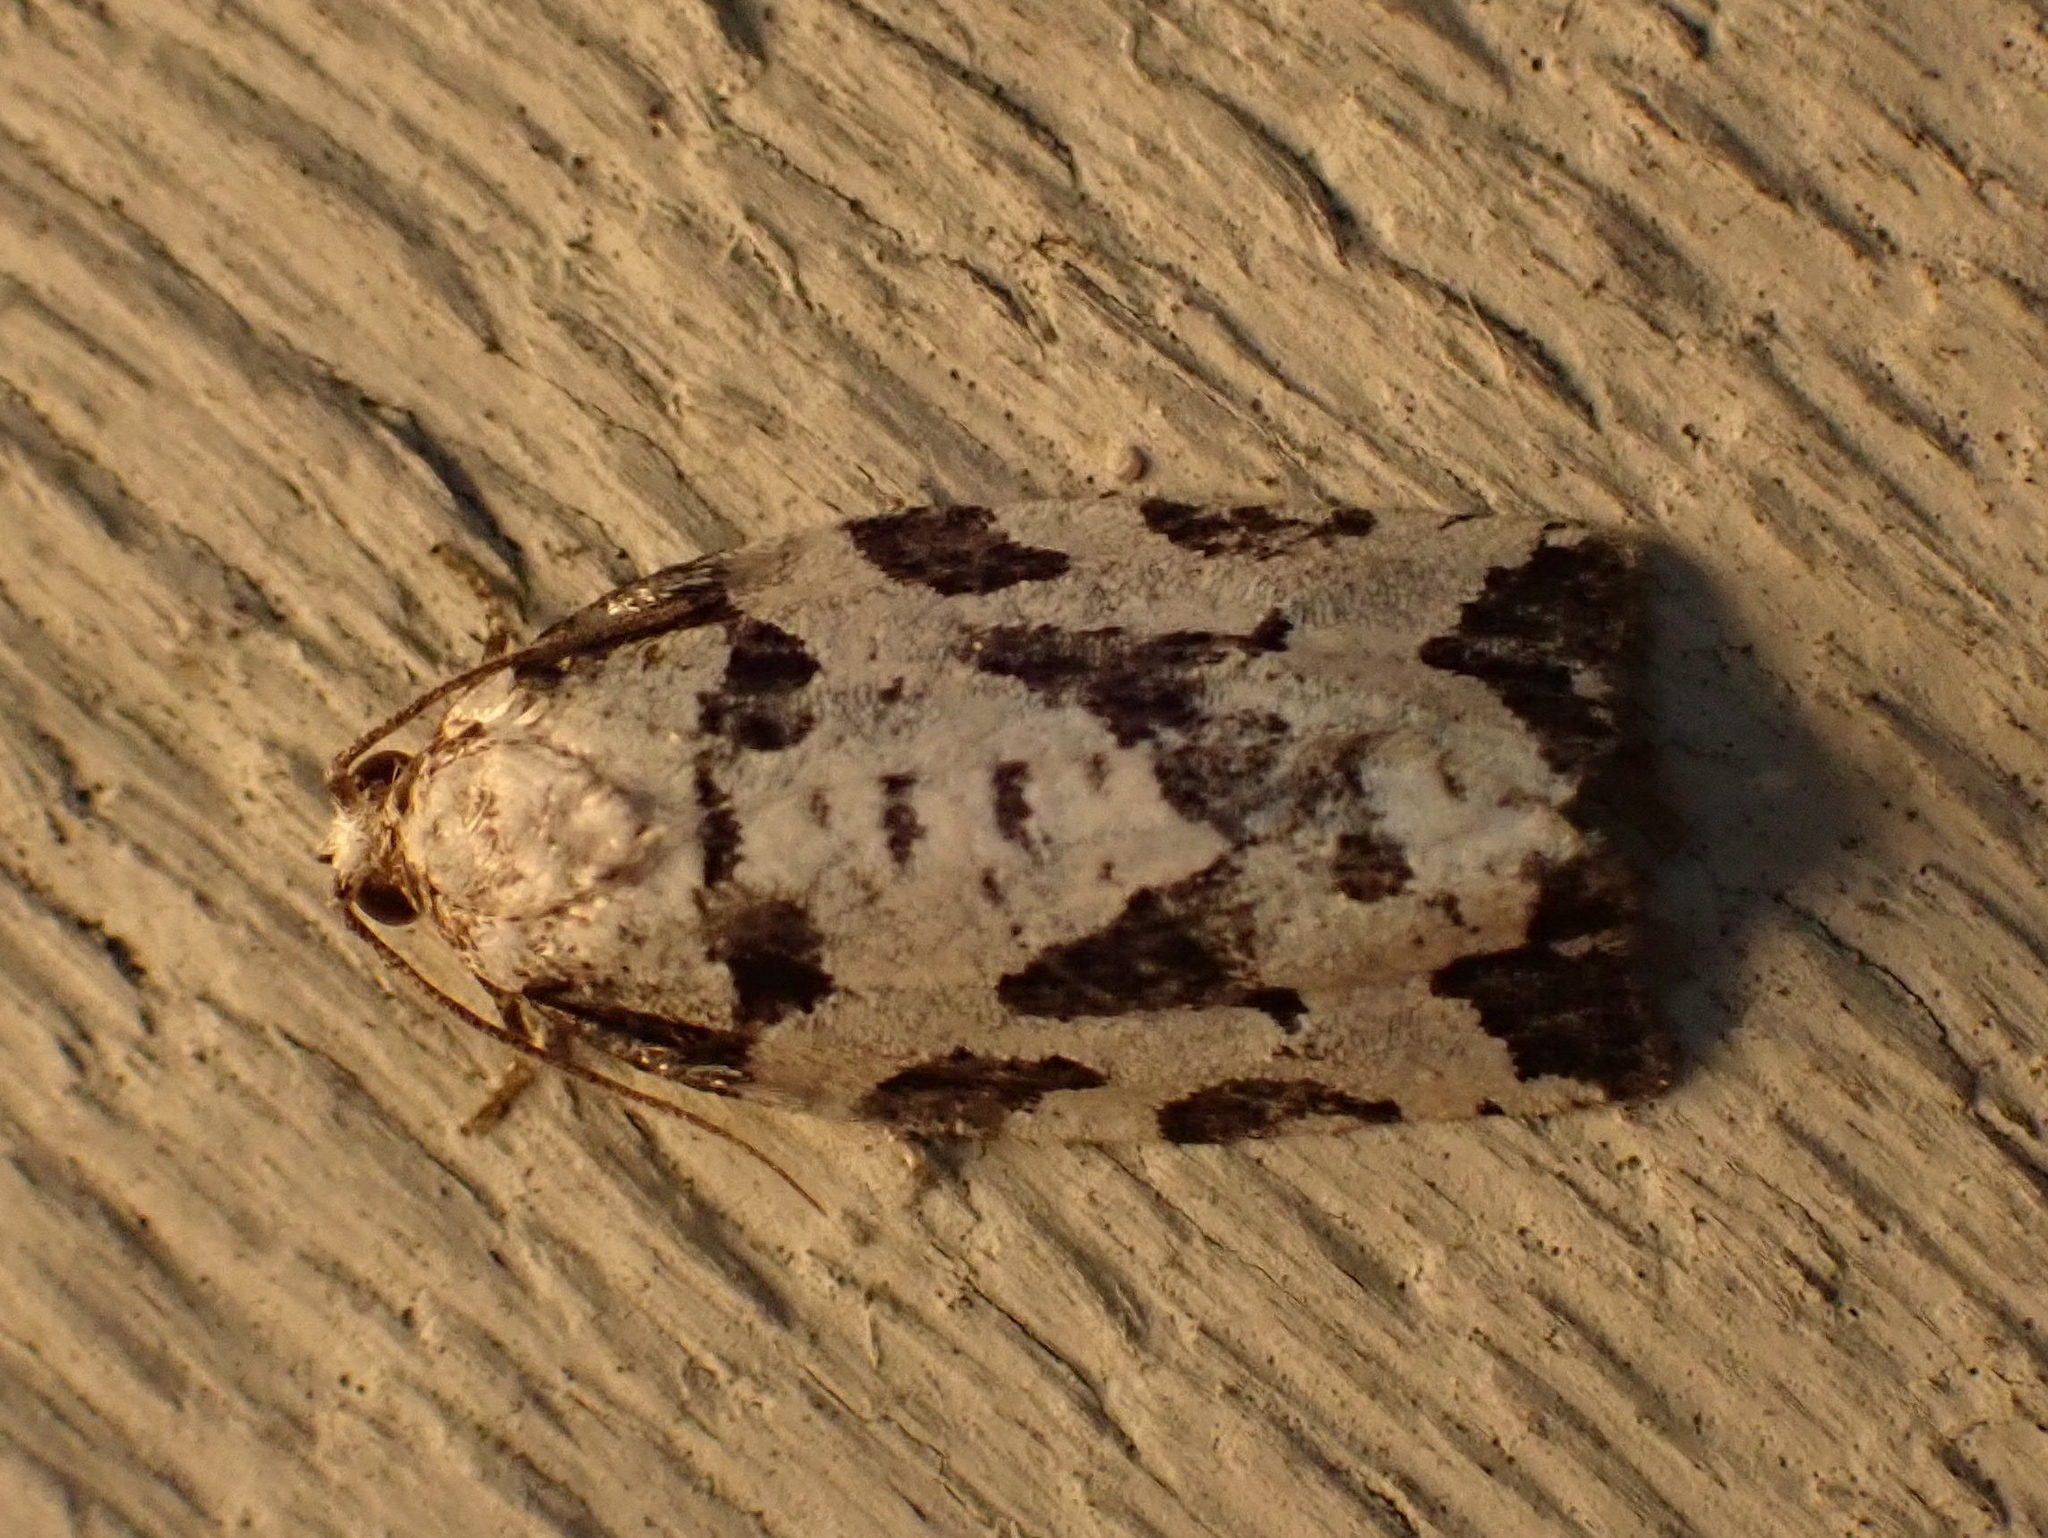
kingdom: Animalia
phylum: Arthropoda
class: Insecta
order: Lepidoptera
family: Tortricidae
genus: Archips
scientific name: Archips dissitana
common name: Boldly-marked archips moth
